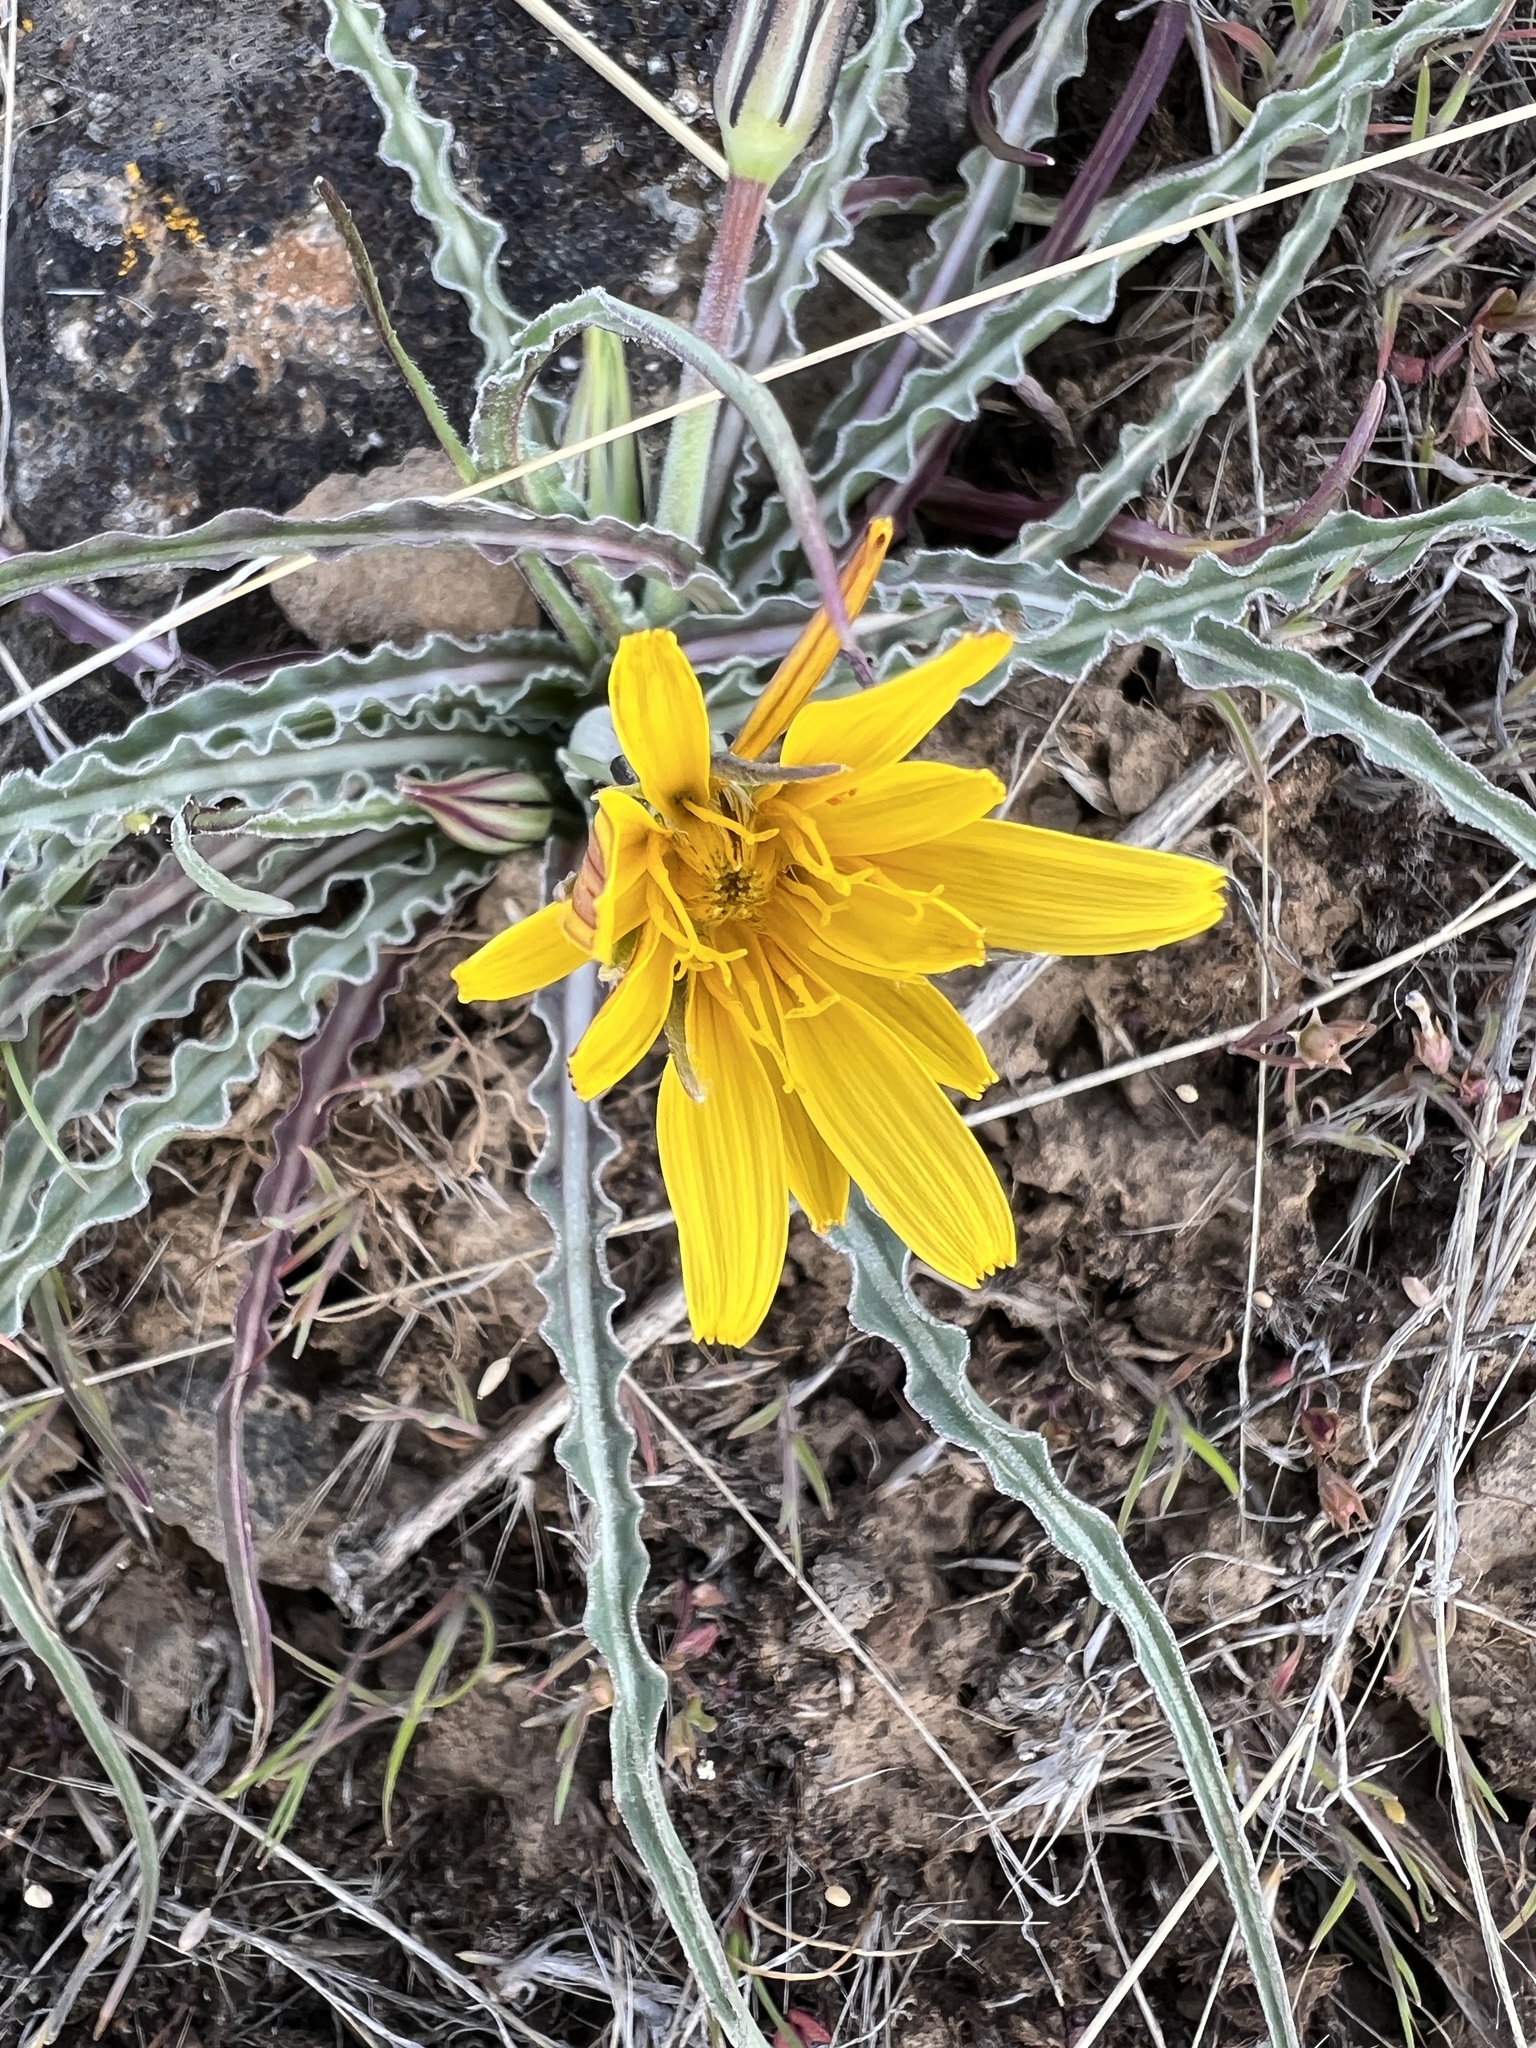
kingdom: Plantae
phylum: Tracheophyta
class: Magnoliopsida
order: Asterales
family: Asteraceae
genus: Microseris
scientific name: Microseris troximoides
